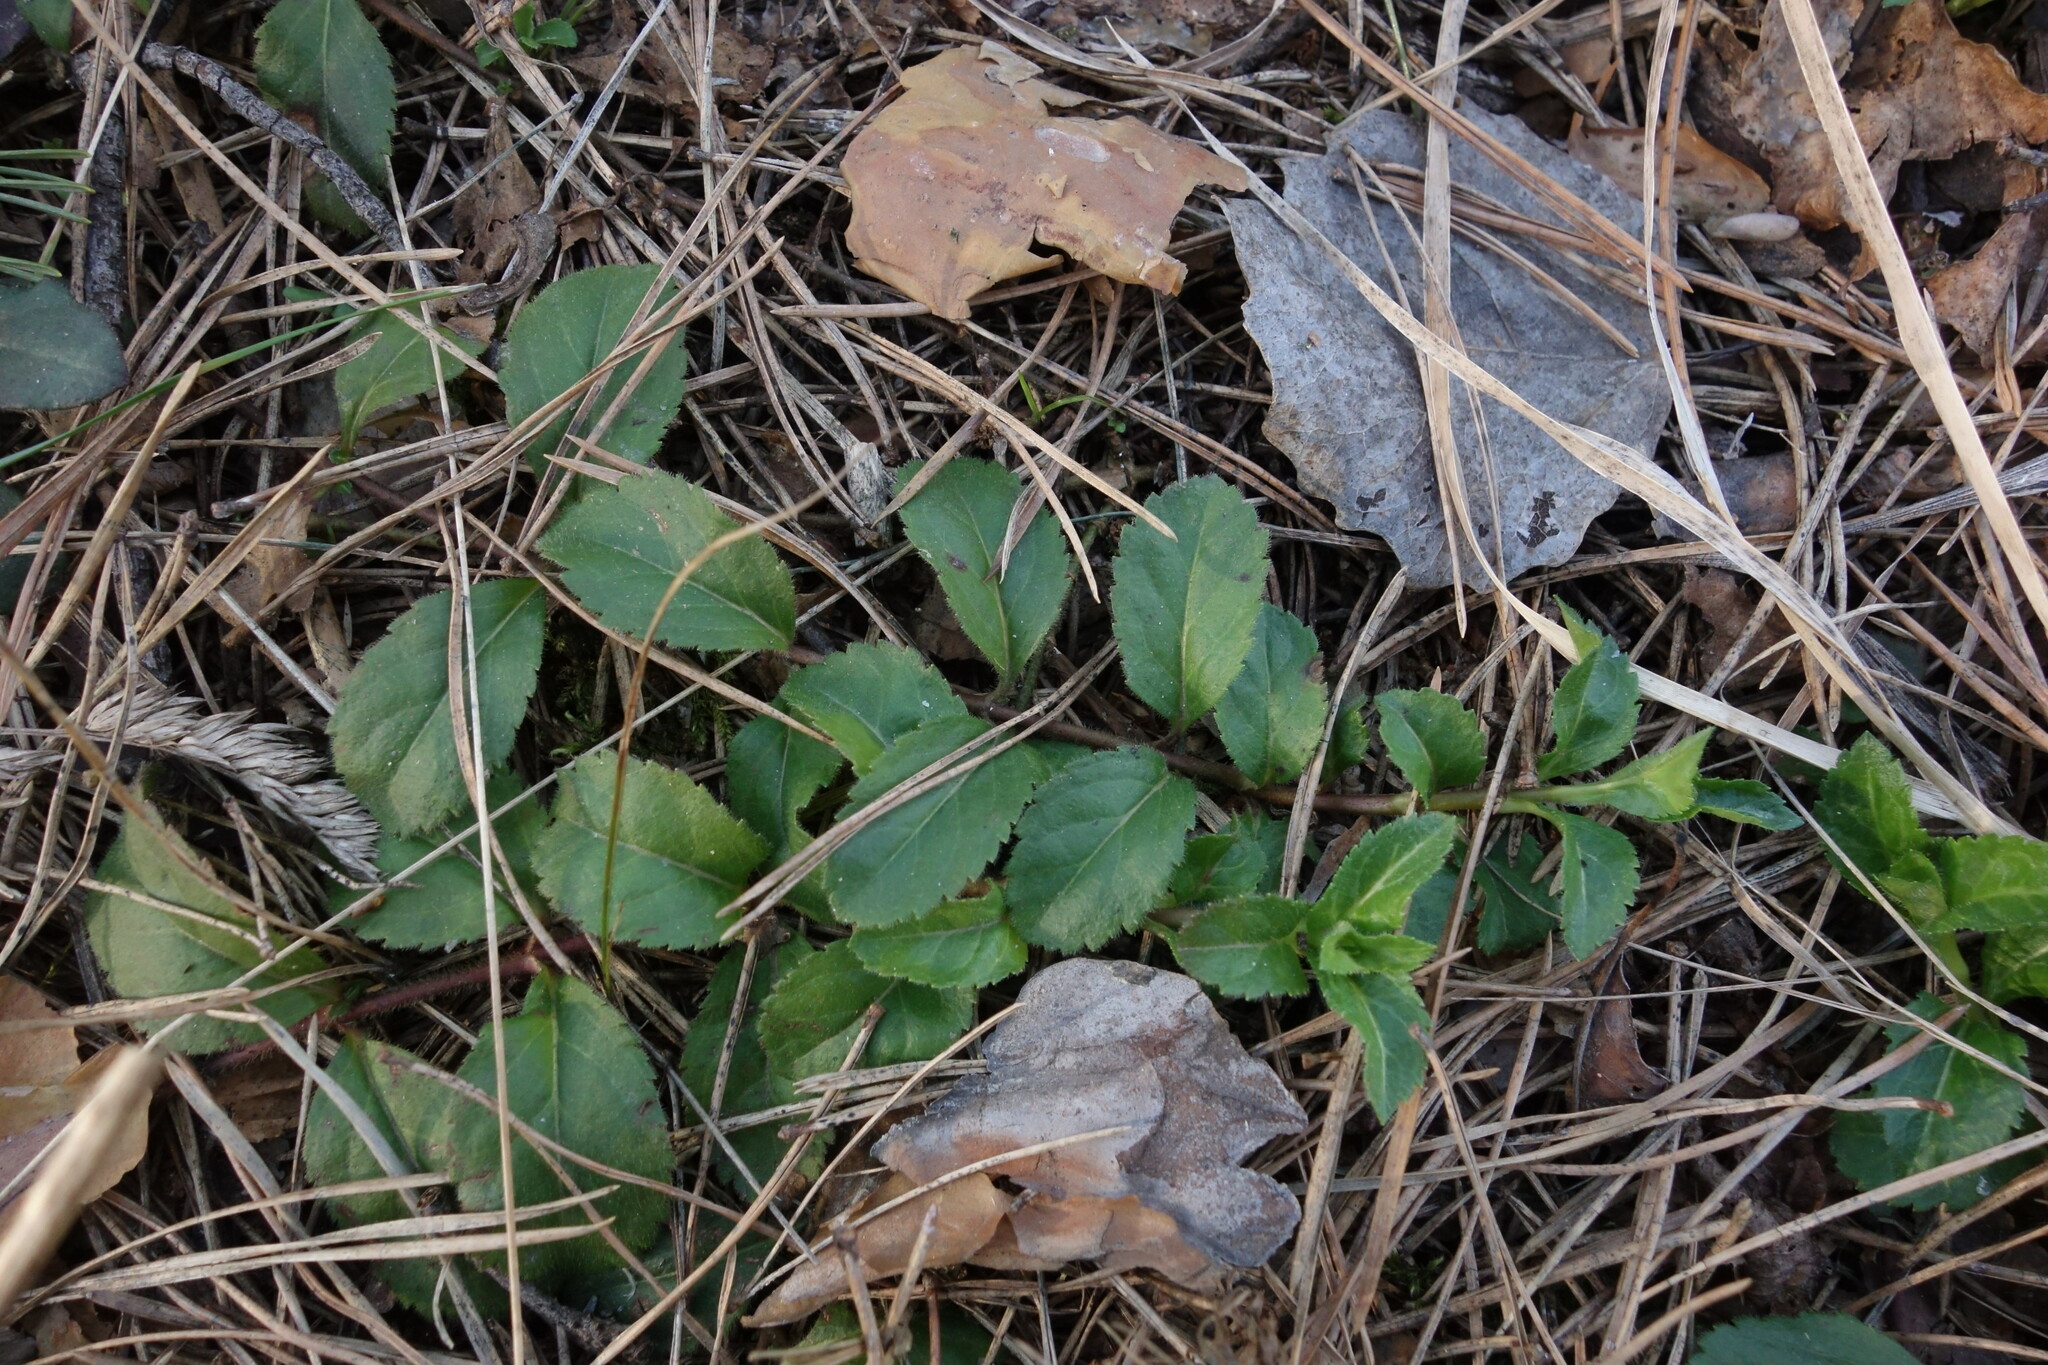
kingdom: Plantae
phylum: Tracheophyta
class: Magnoliopsida
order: Lamiales
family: Plantaginaceae
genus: Veronica
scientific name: Veronica officinalis
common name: Common speedwell
